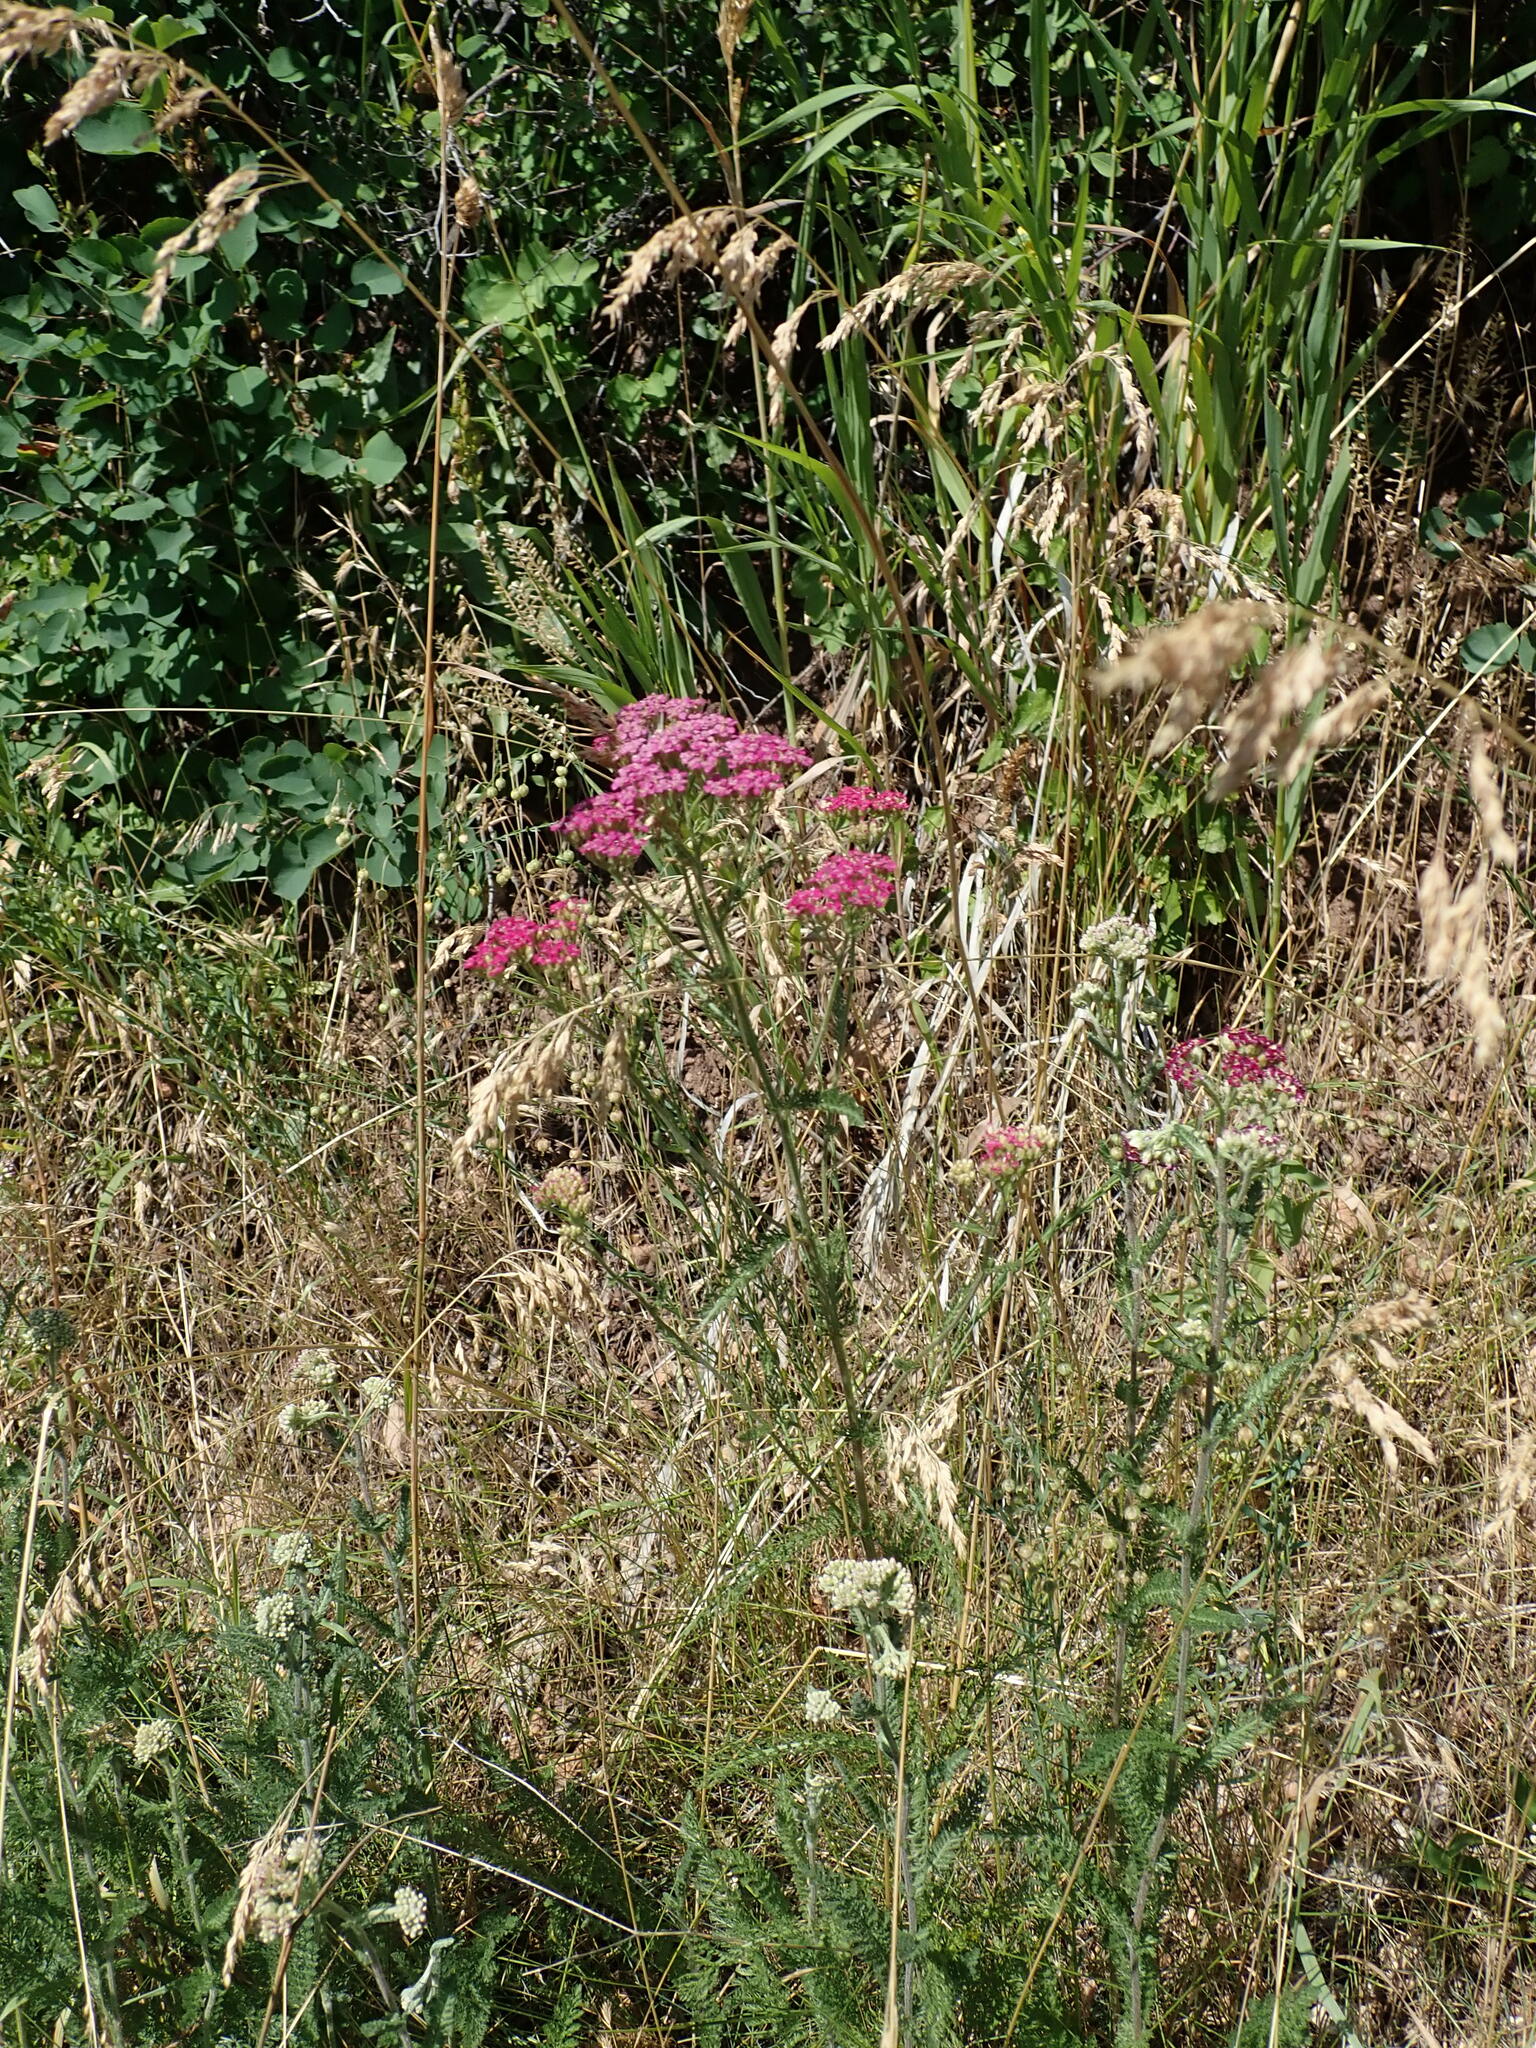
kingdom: Plantae
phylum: Tracheophyta
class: Magnoliopsida
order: Asterales
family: Asteraceae
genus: Achillea
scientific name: Achillea millefolium
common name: Yarrow
